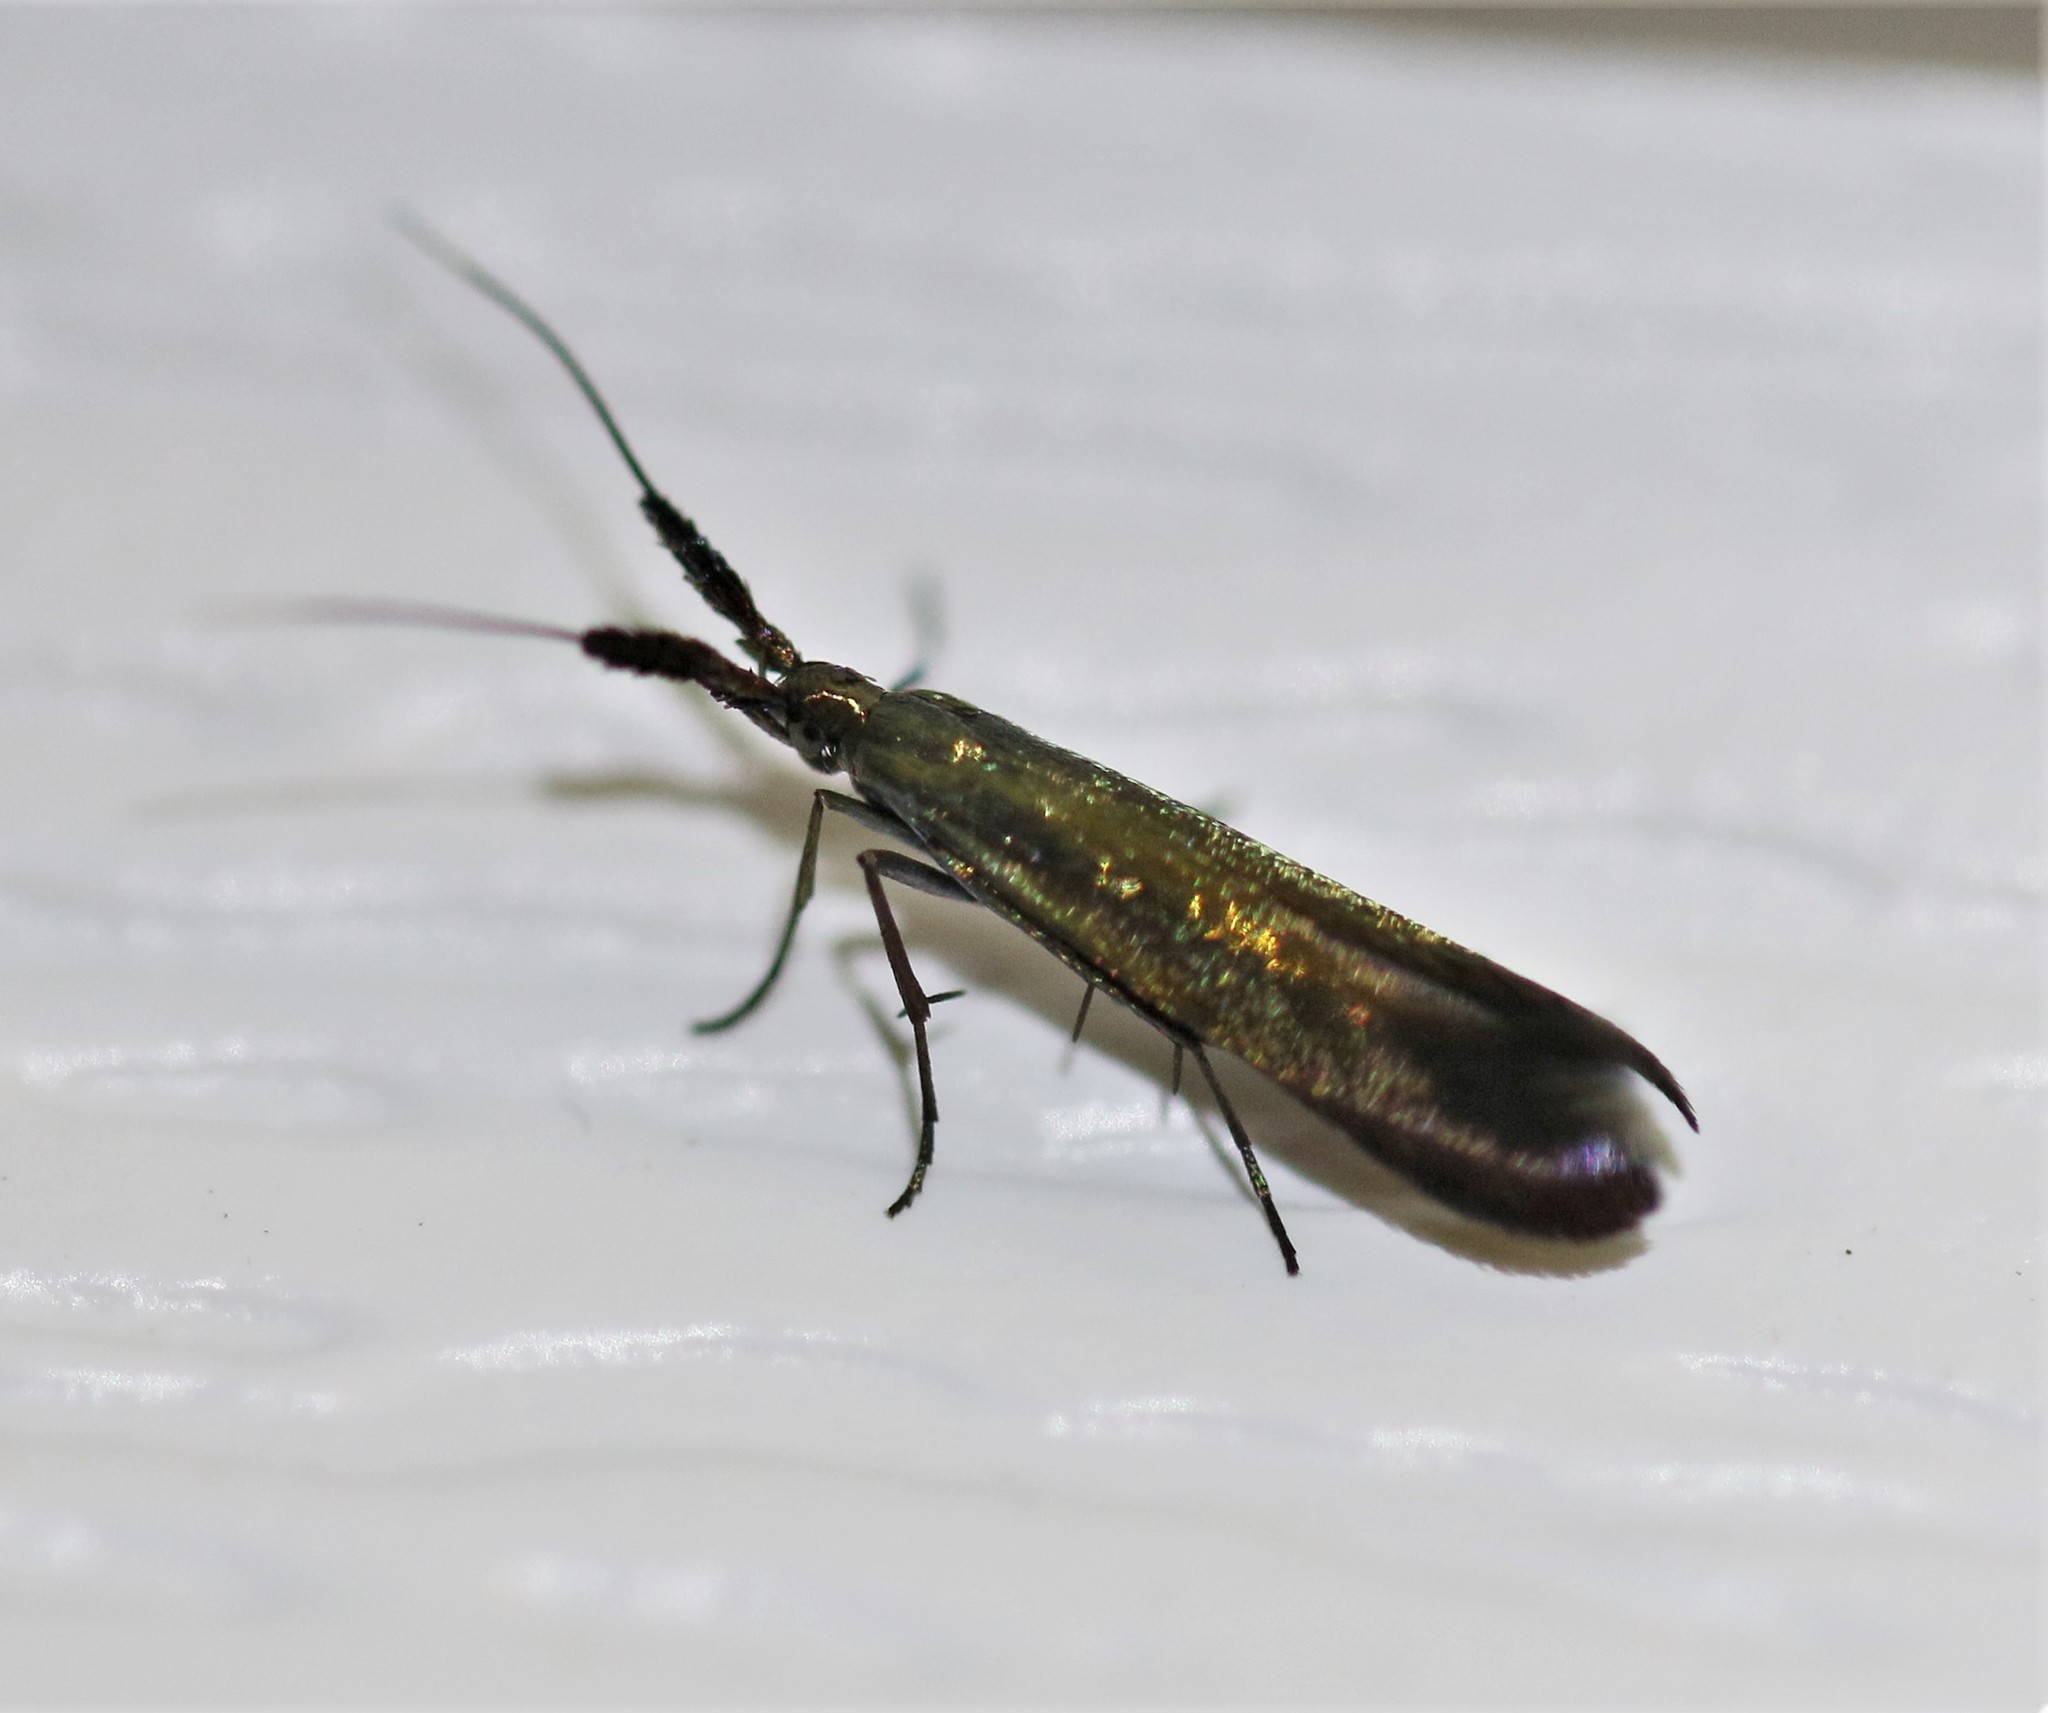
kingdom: Animalia
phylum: Arthropoda
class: Insecta
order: Lepidoptera
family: Coleophoridae
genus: Coleophora
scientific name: Coleophora mayrella
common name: Meadow case-bearer
